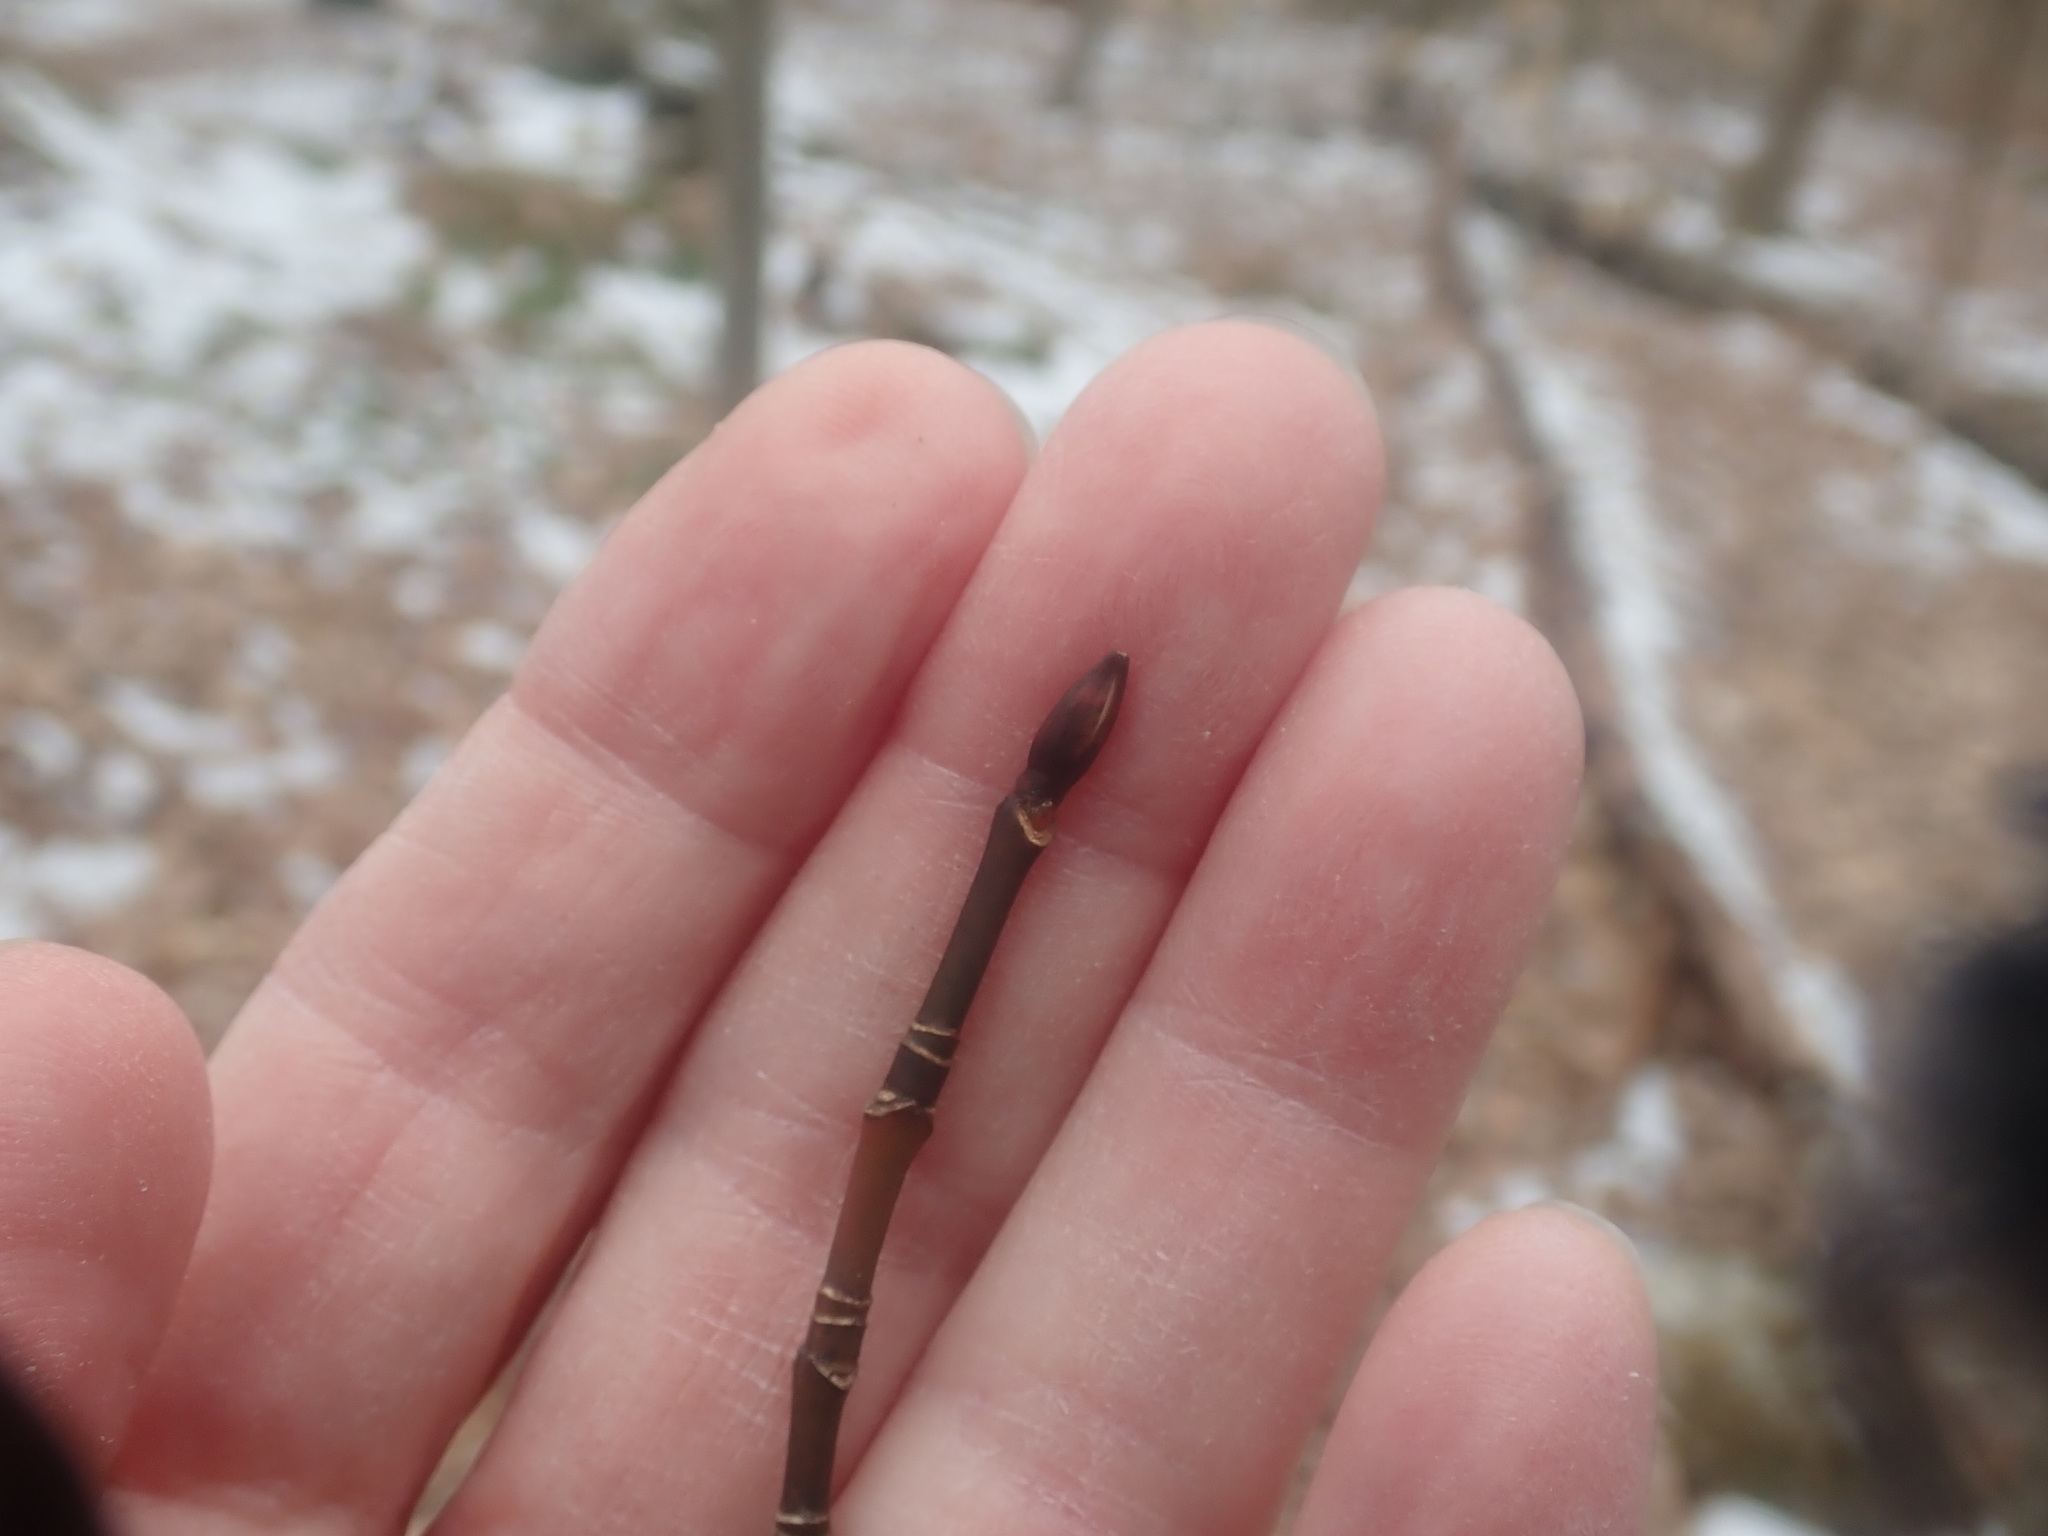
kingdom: Plantae
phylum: Tracheophyta
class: Magnoliopsida
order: Sapindales
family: Sapindaceae
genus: Acer
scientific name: Acer pensylvanicum
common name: Moosewood
